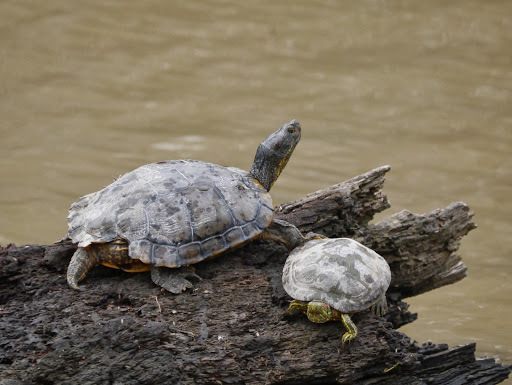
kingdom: Animalia
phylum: Chordata
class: Testudines
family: Emydidae
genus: Trachemys
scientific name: Trachemys scripta
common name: Slider
